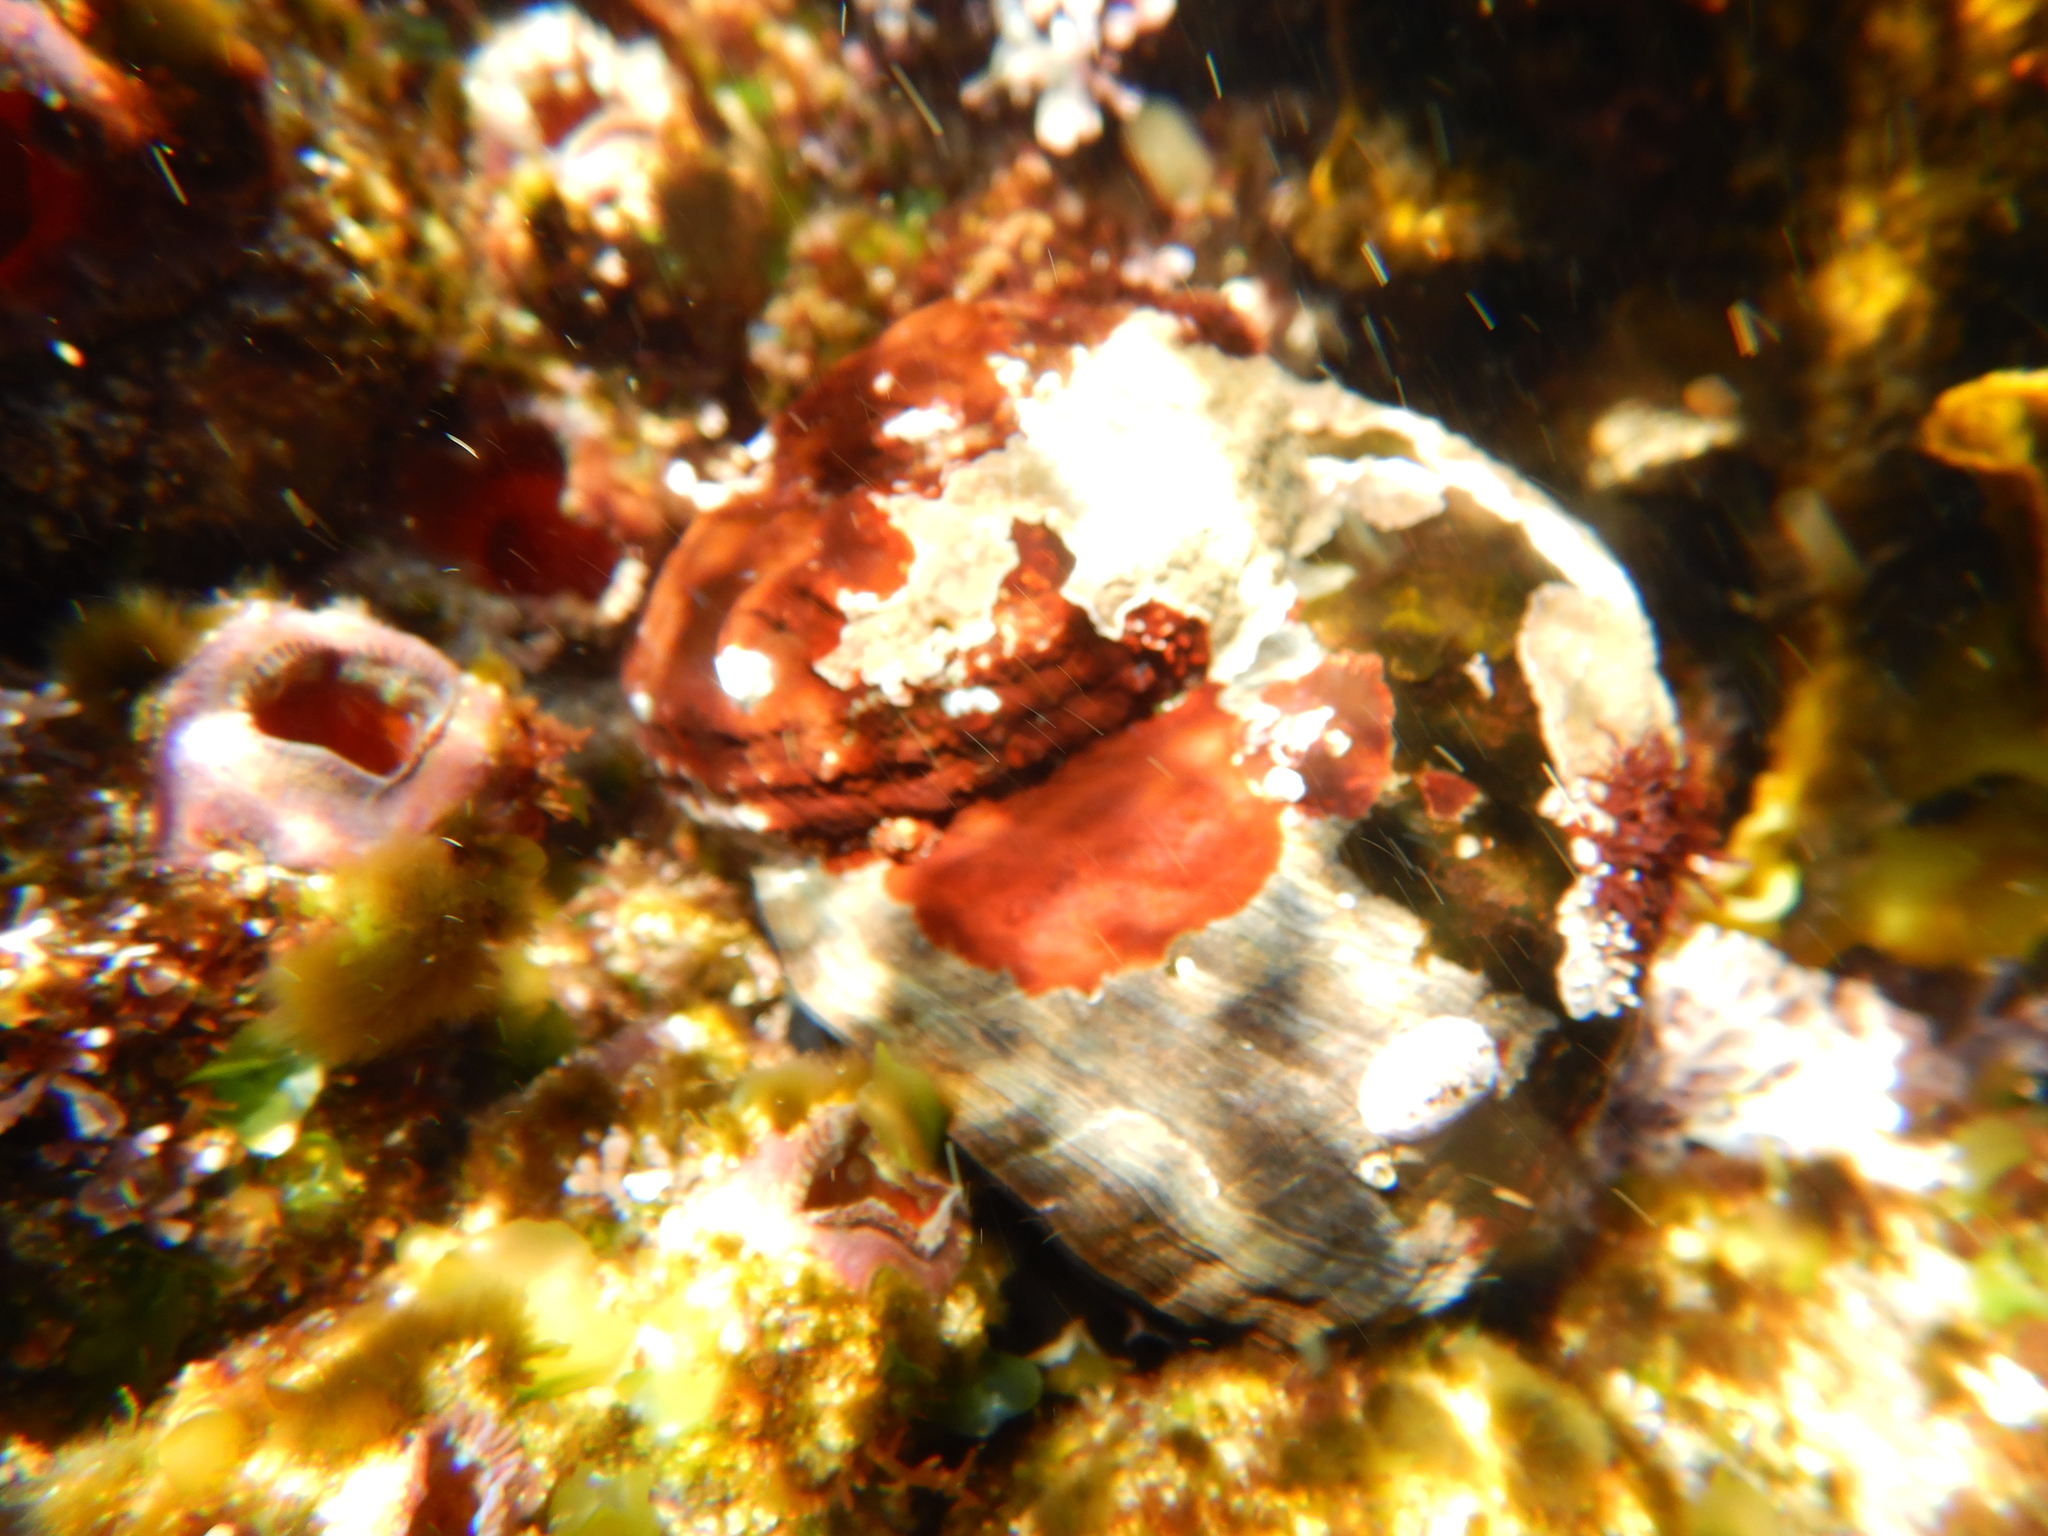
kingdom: Animalia
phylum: Mollusca
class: Gastropoda
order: Trochida
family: Turbinidae
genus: Lunella
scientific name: Lunella torquata
